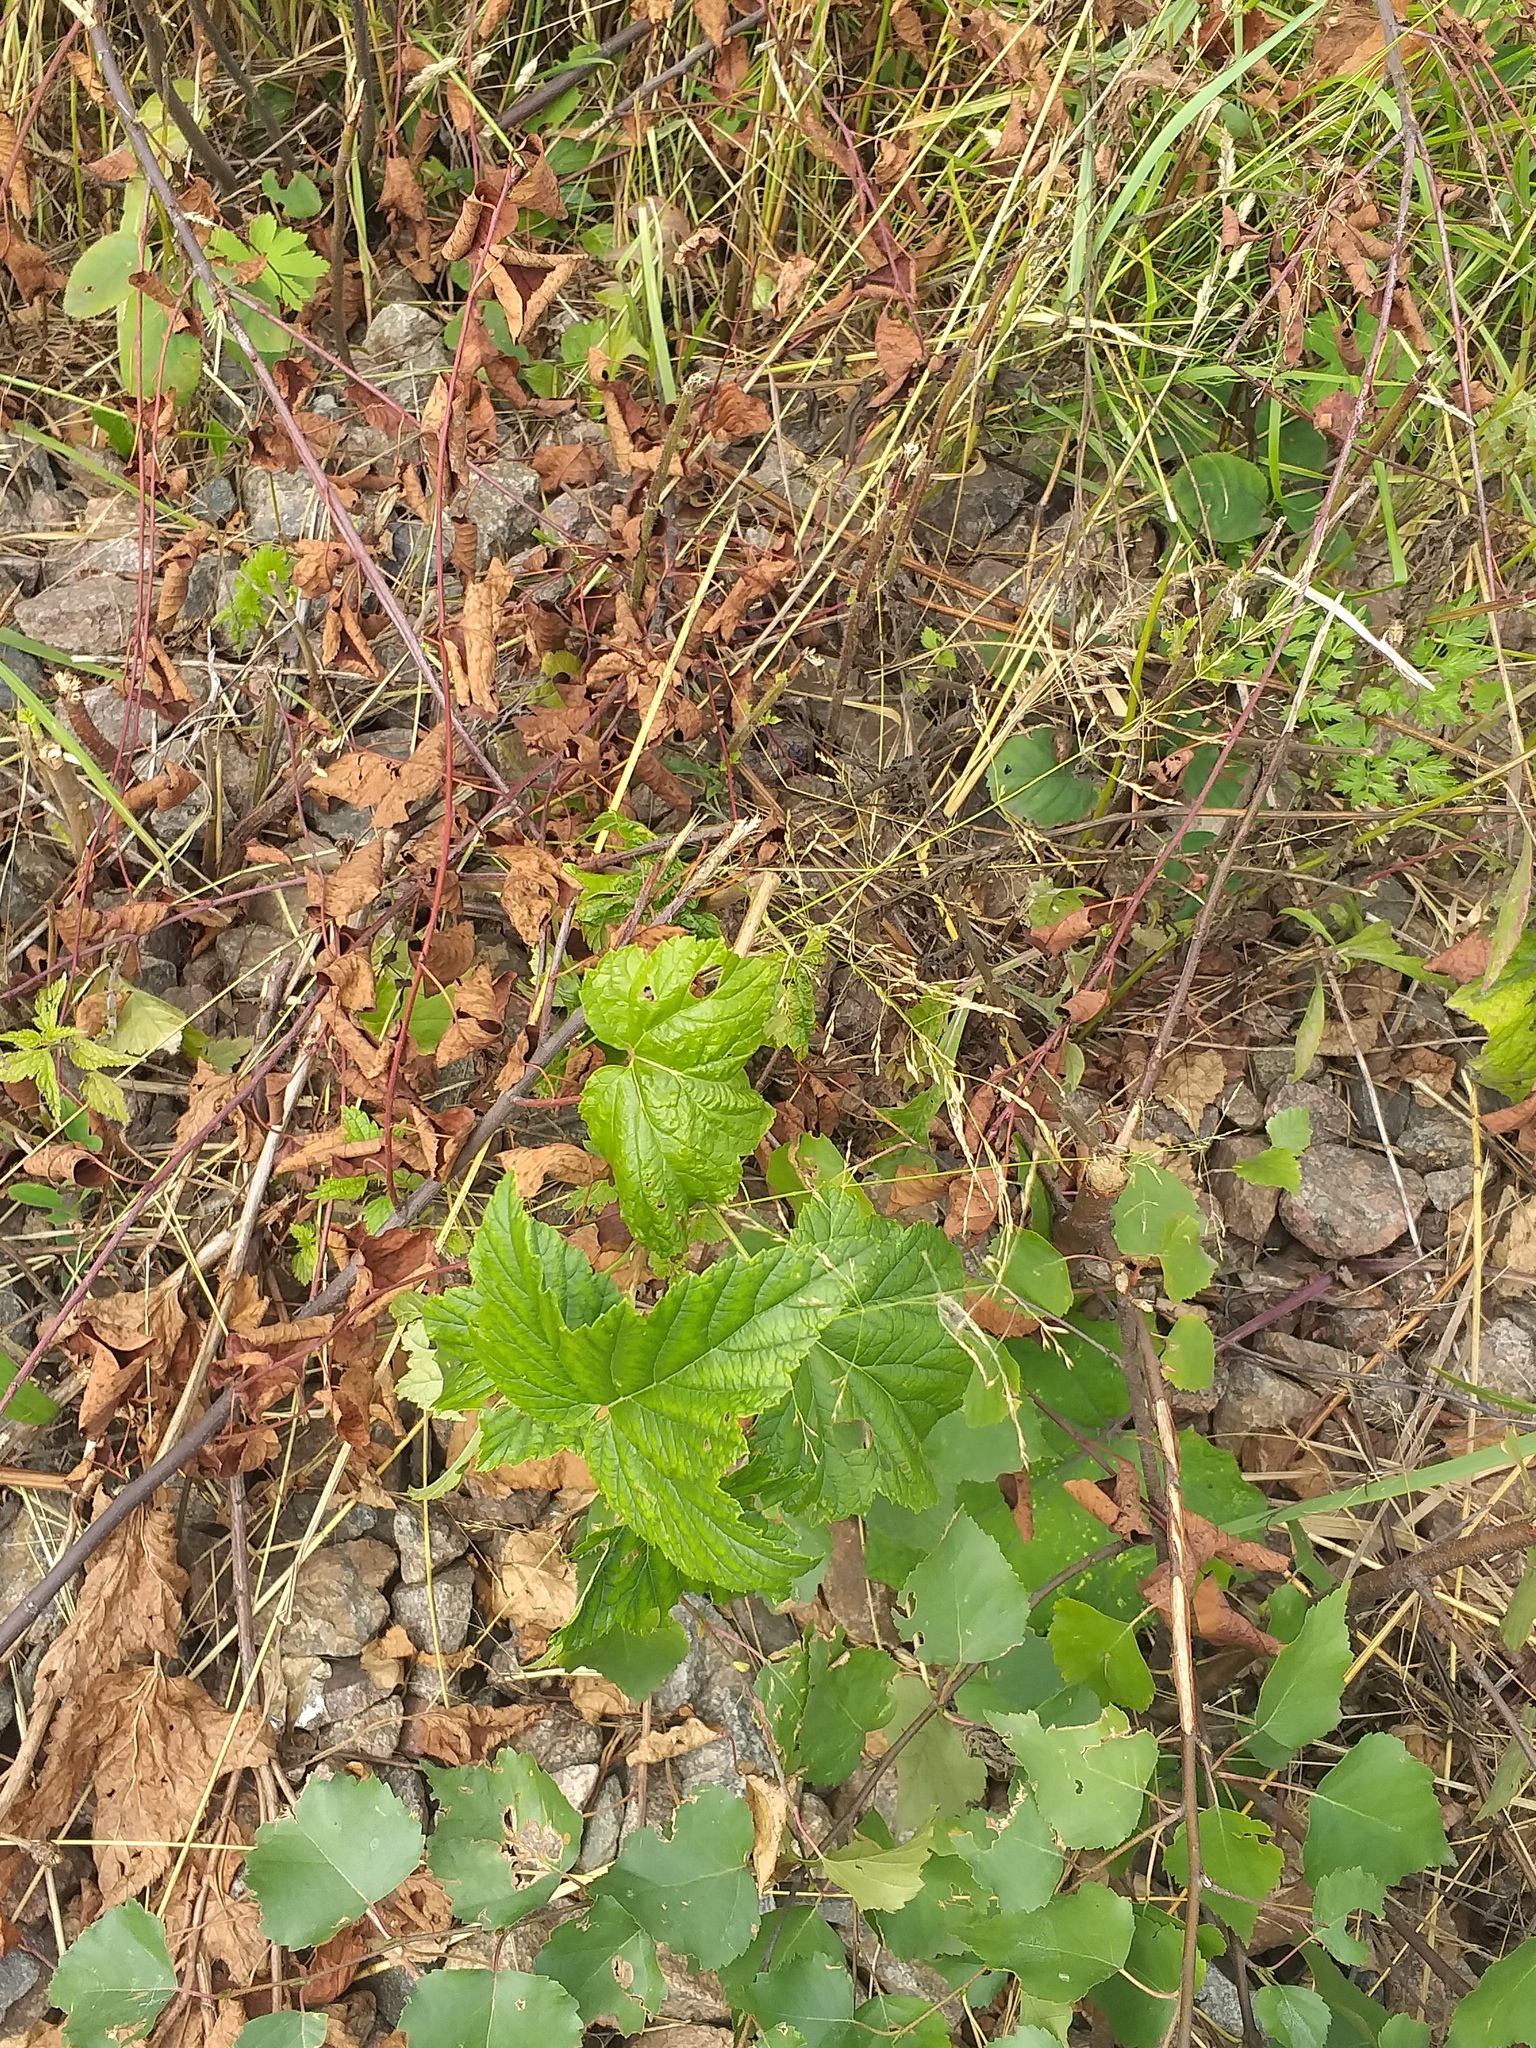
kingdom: Plantae
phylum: Tracheophyta
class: Magnoliopsida
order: Saxifragales
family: Grossulariaceae
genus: Ribes
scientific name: Ribes nigrum
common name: Black currant
